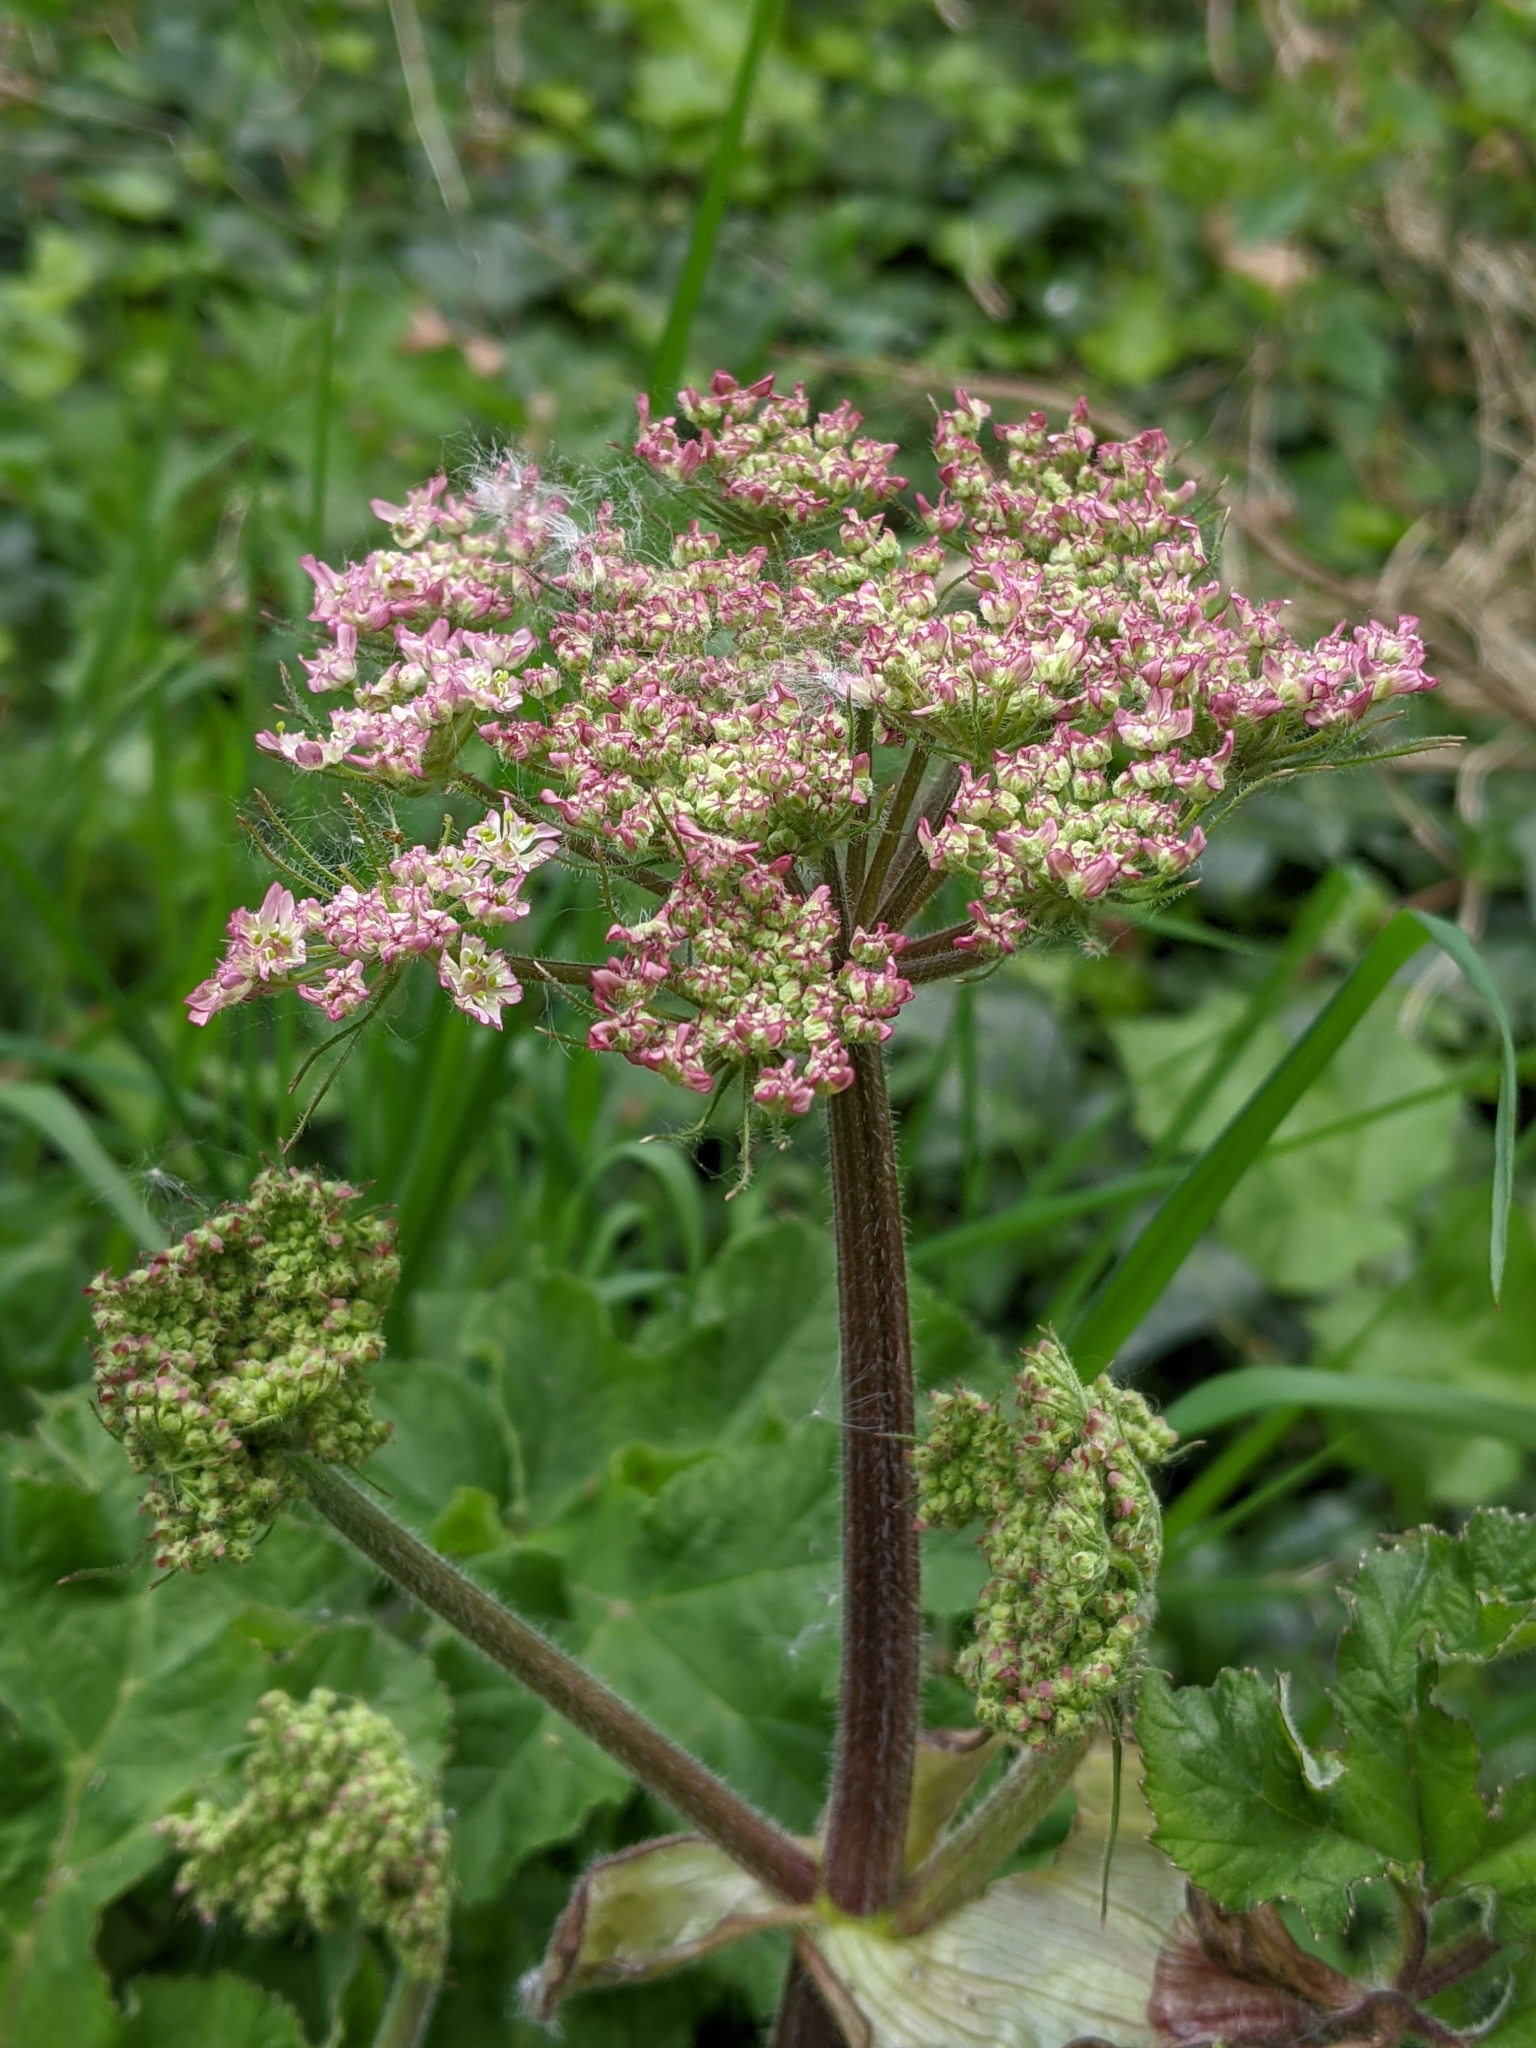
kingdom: Plantae
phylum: Tracheophyta
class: Magnoliopsida
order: Apiales
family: Apiaceae
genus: Heracleum
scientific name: Heracleum sphondylium
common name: Hogweed
